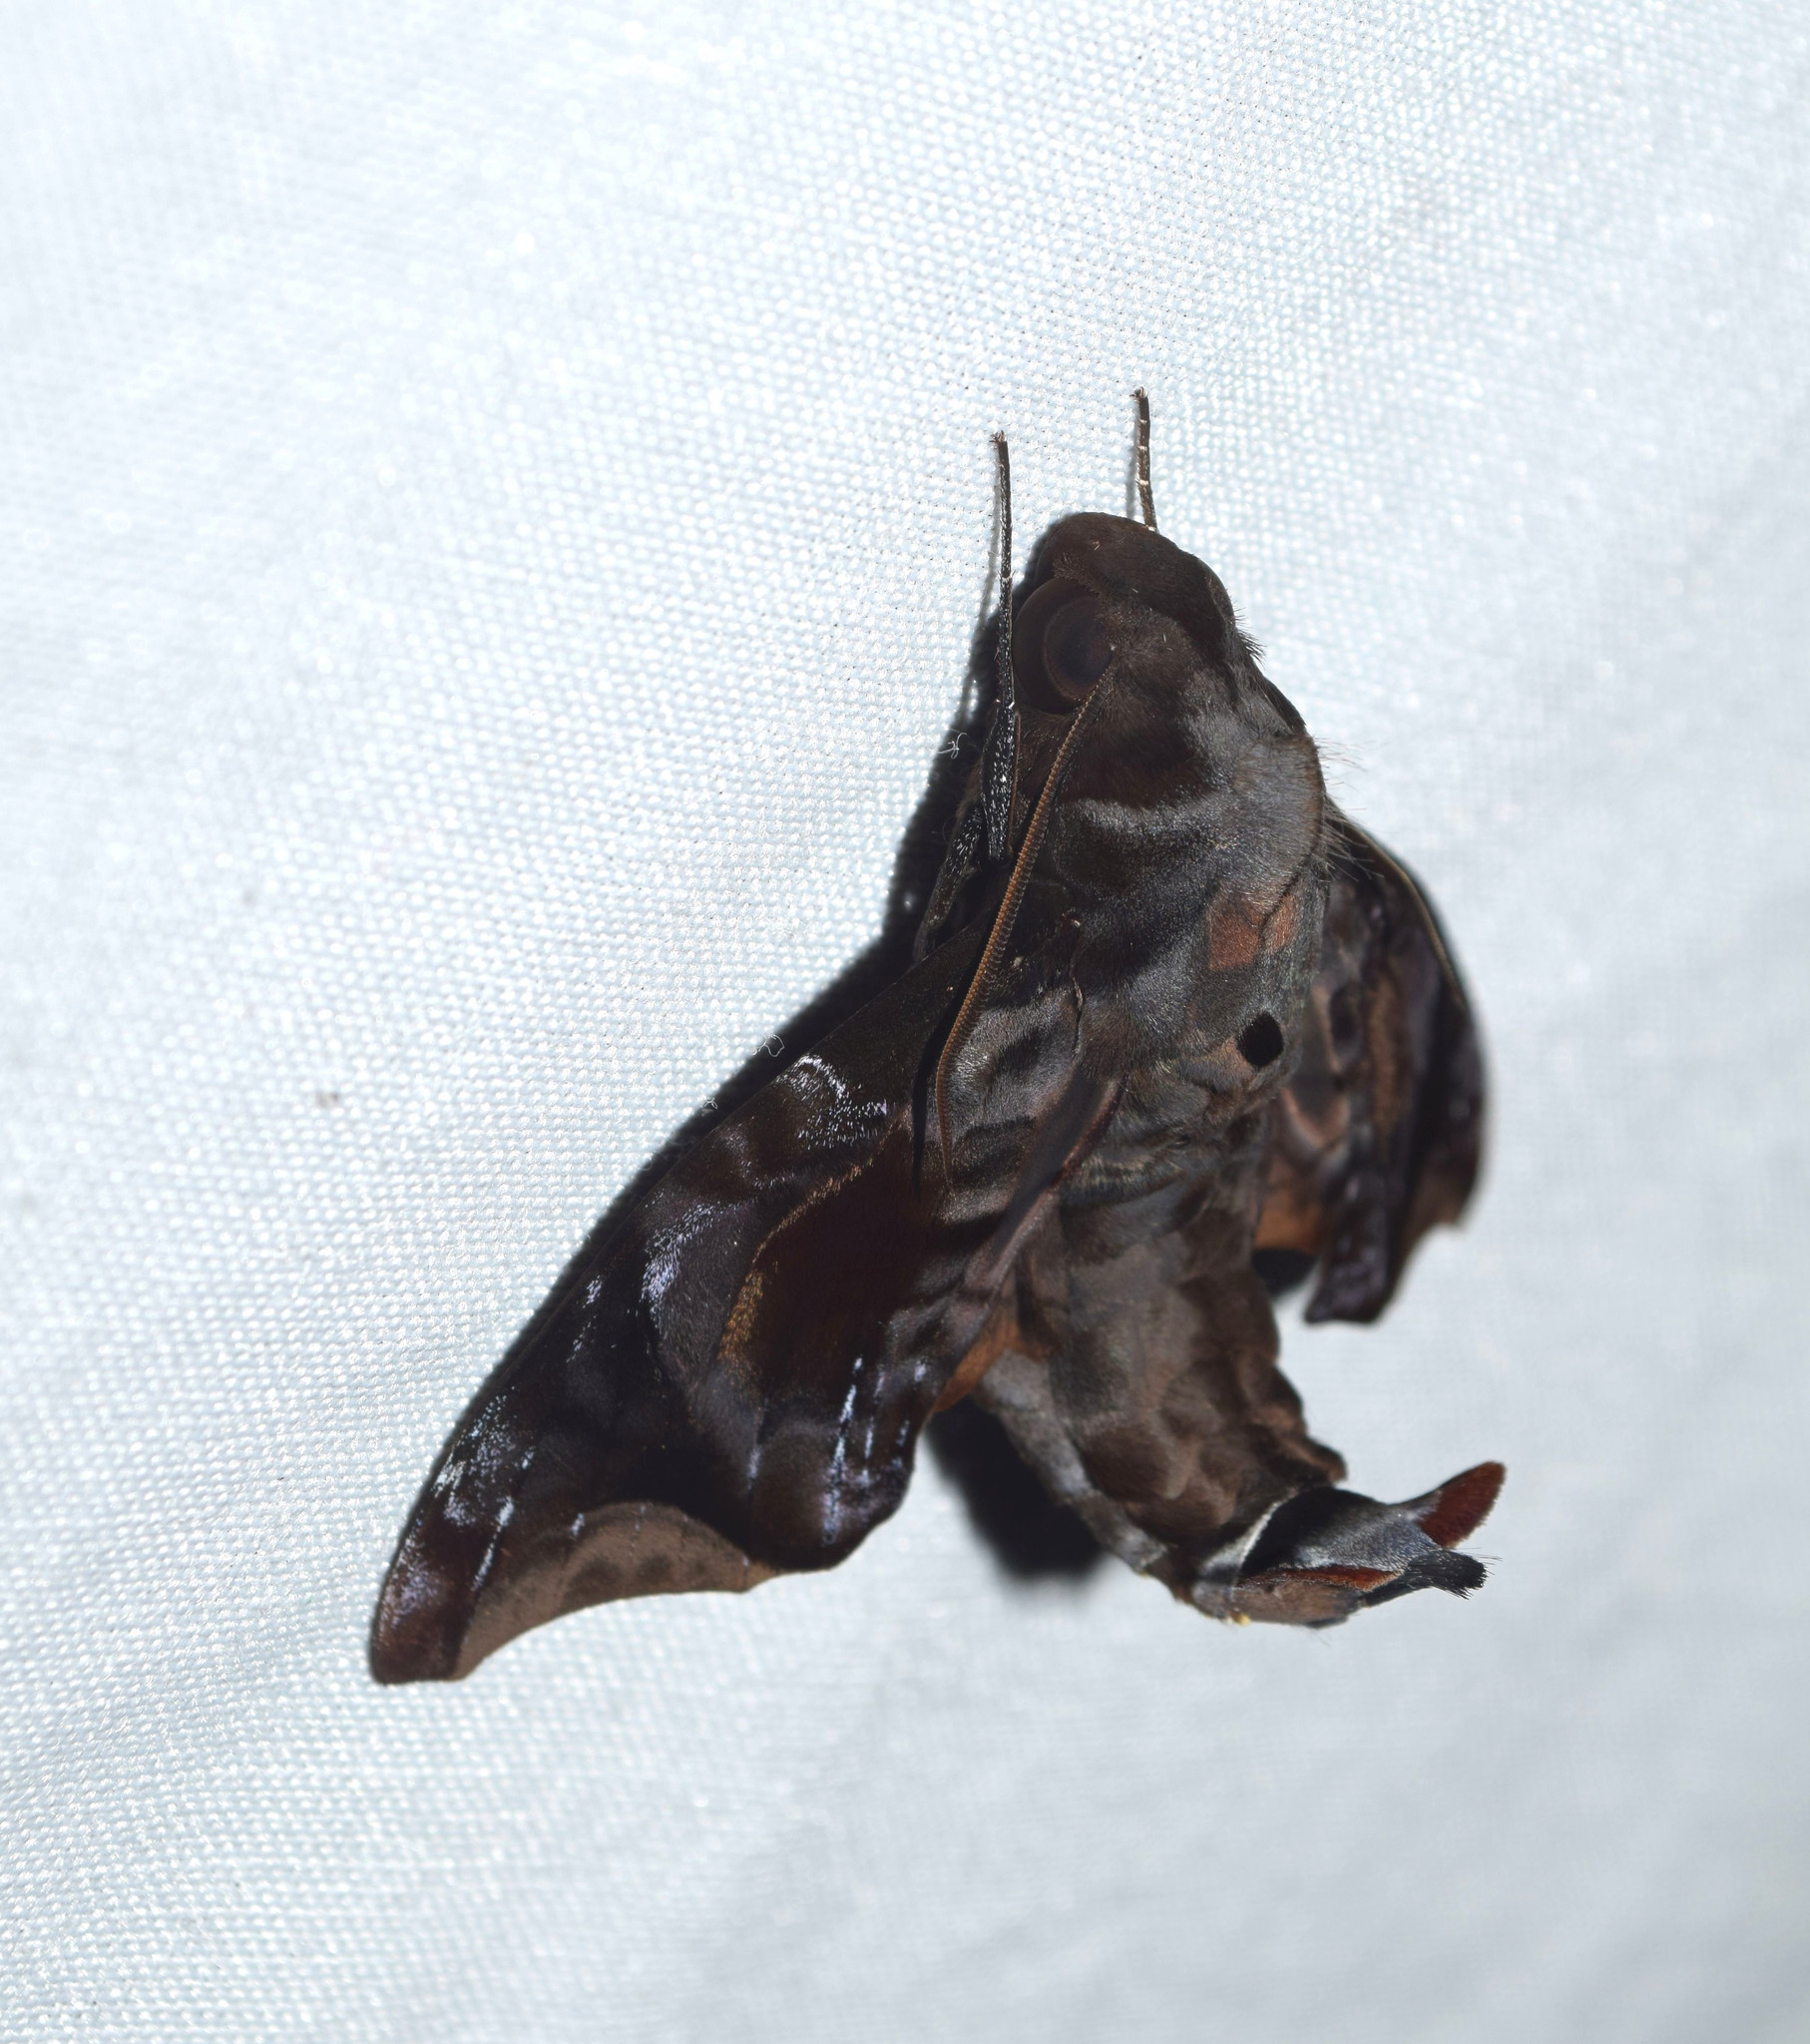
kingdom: Animalia
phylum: Arthropoda
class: Insecta
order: Lepidoptera
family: Sphingidae
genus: Enyo
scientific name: Enyo cavifer
